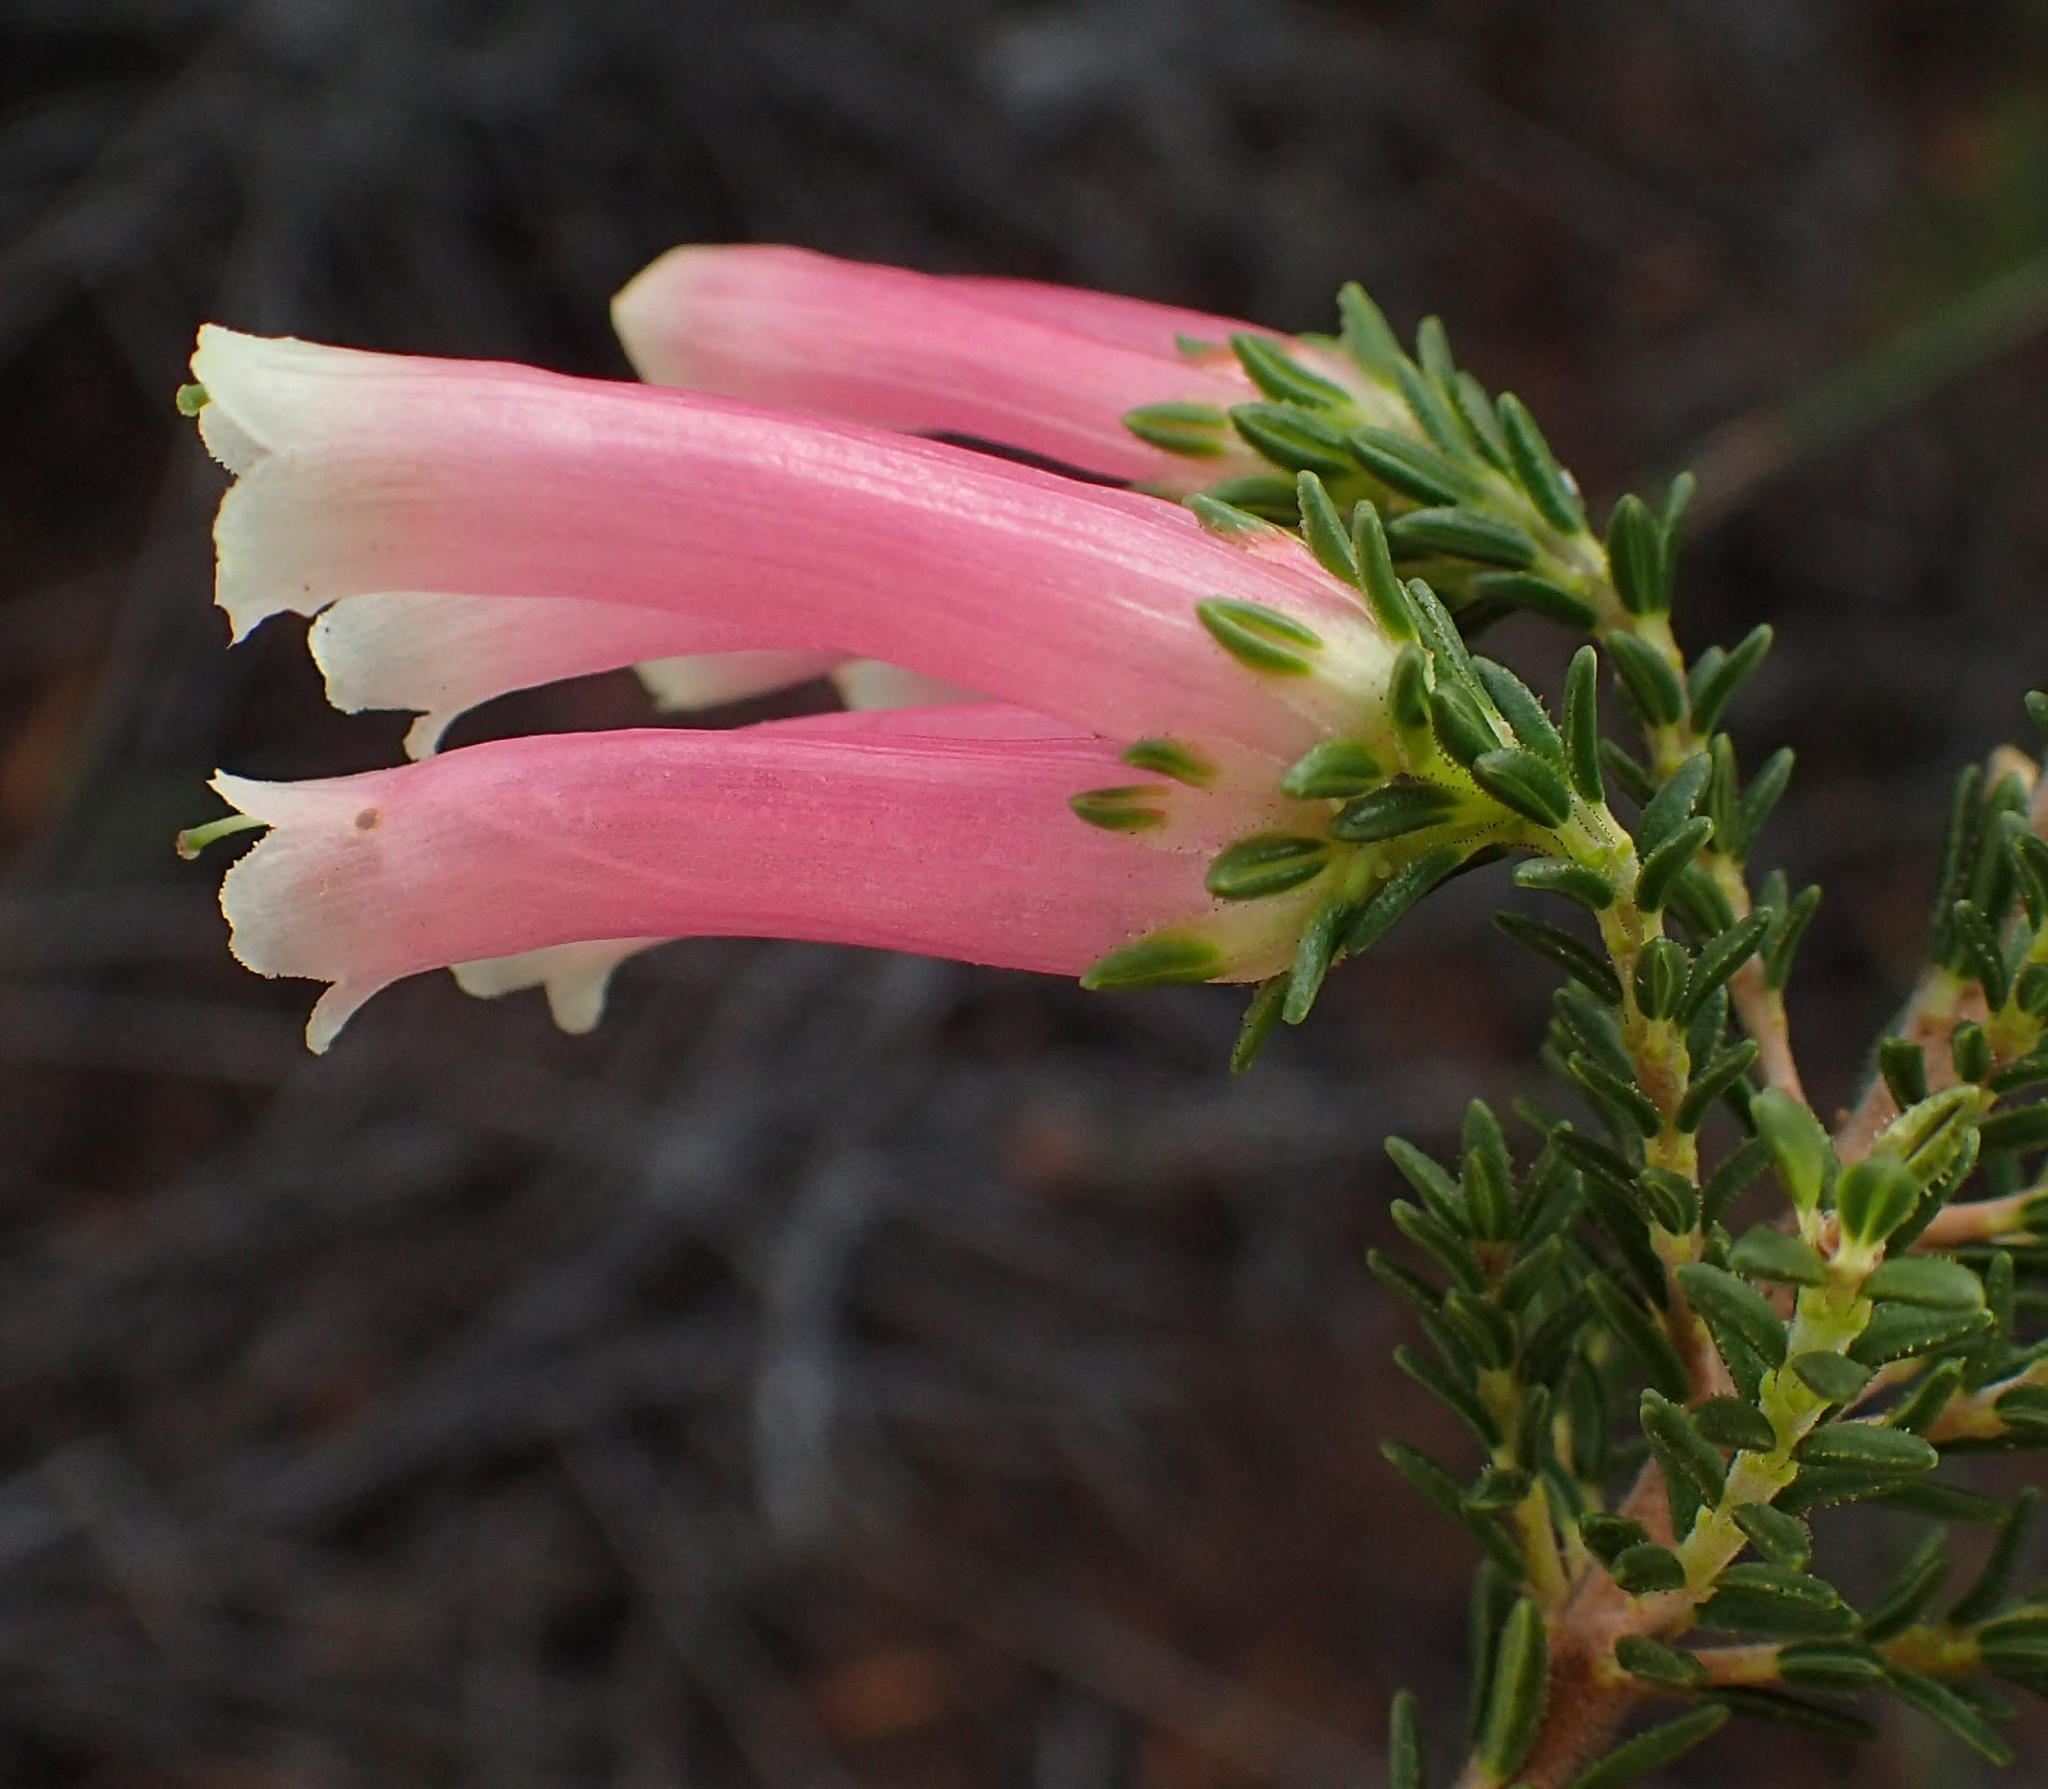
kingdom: Plantae
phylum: Tracheophyta
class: Magnoliopsida
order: Ericales
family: Ericaceae
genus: Erica
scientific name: Erica versicolor
